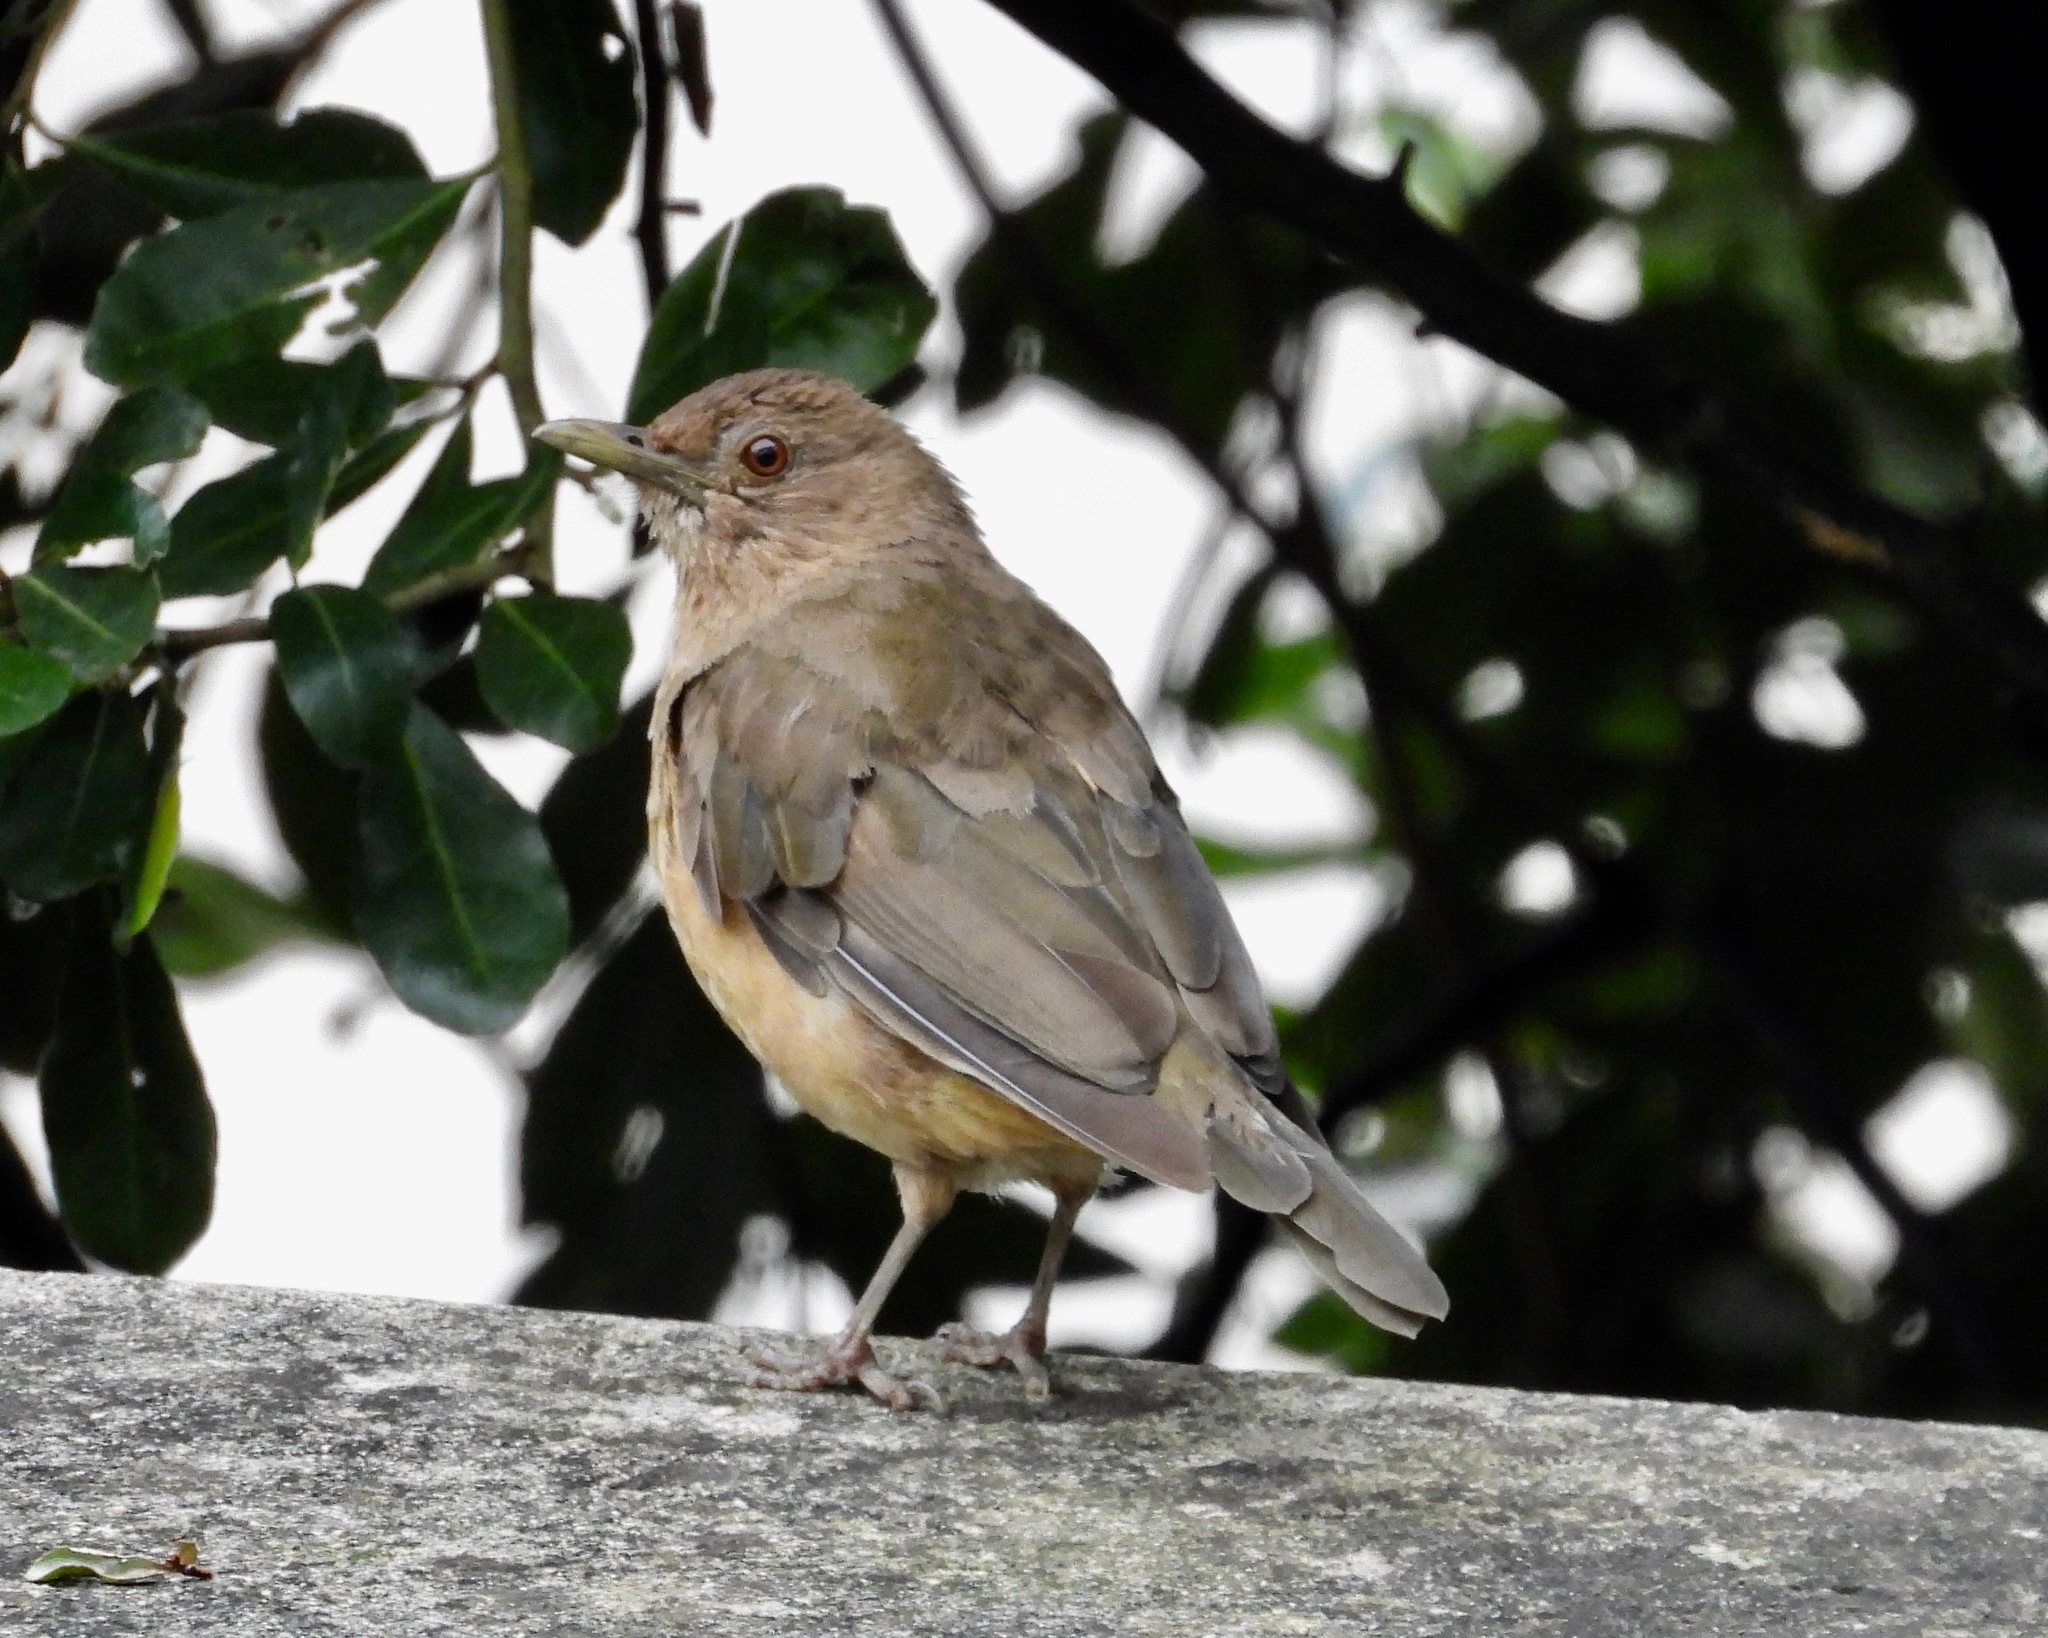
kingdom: Animalia
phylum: Chordata
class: Aves
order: Passeriformes
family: Turdidae
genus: Turdus
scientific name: Turdus grayi
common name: Clay-colored thrush
